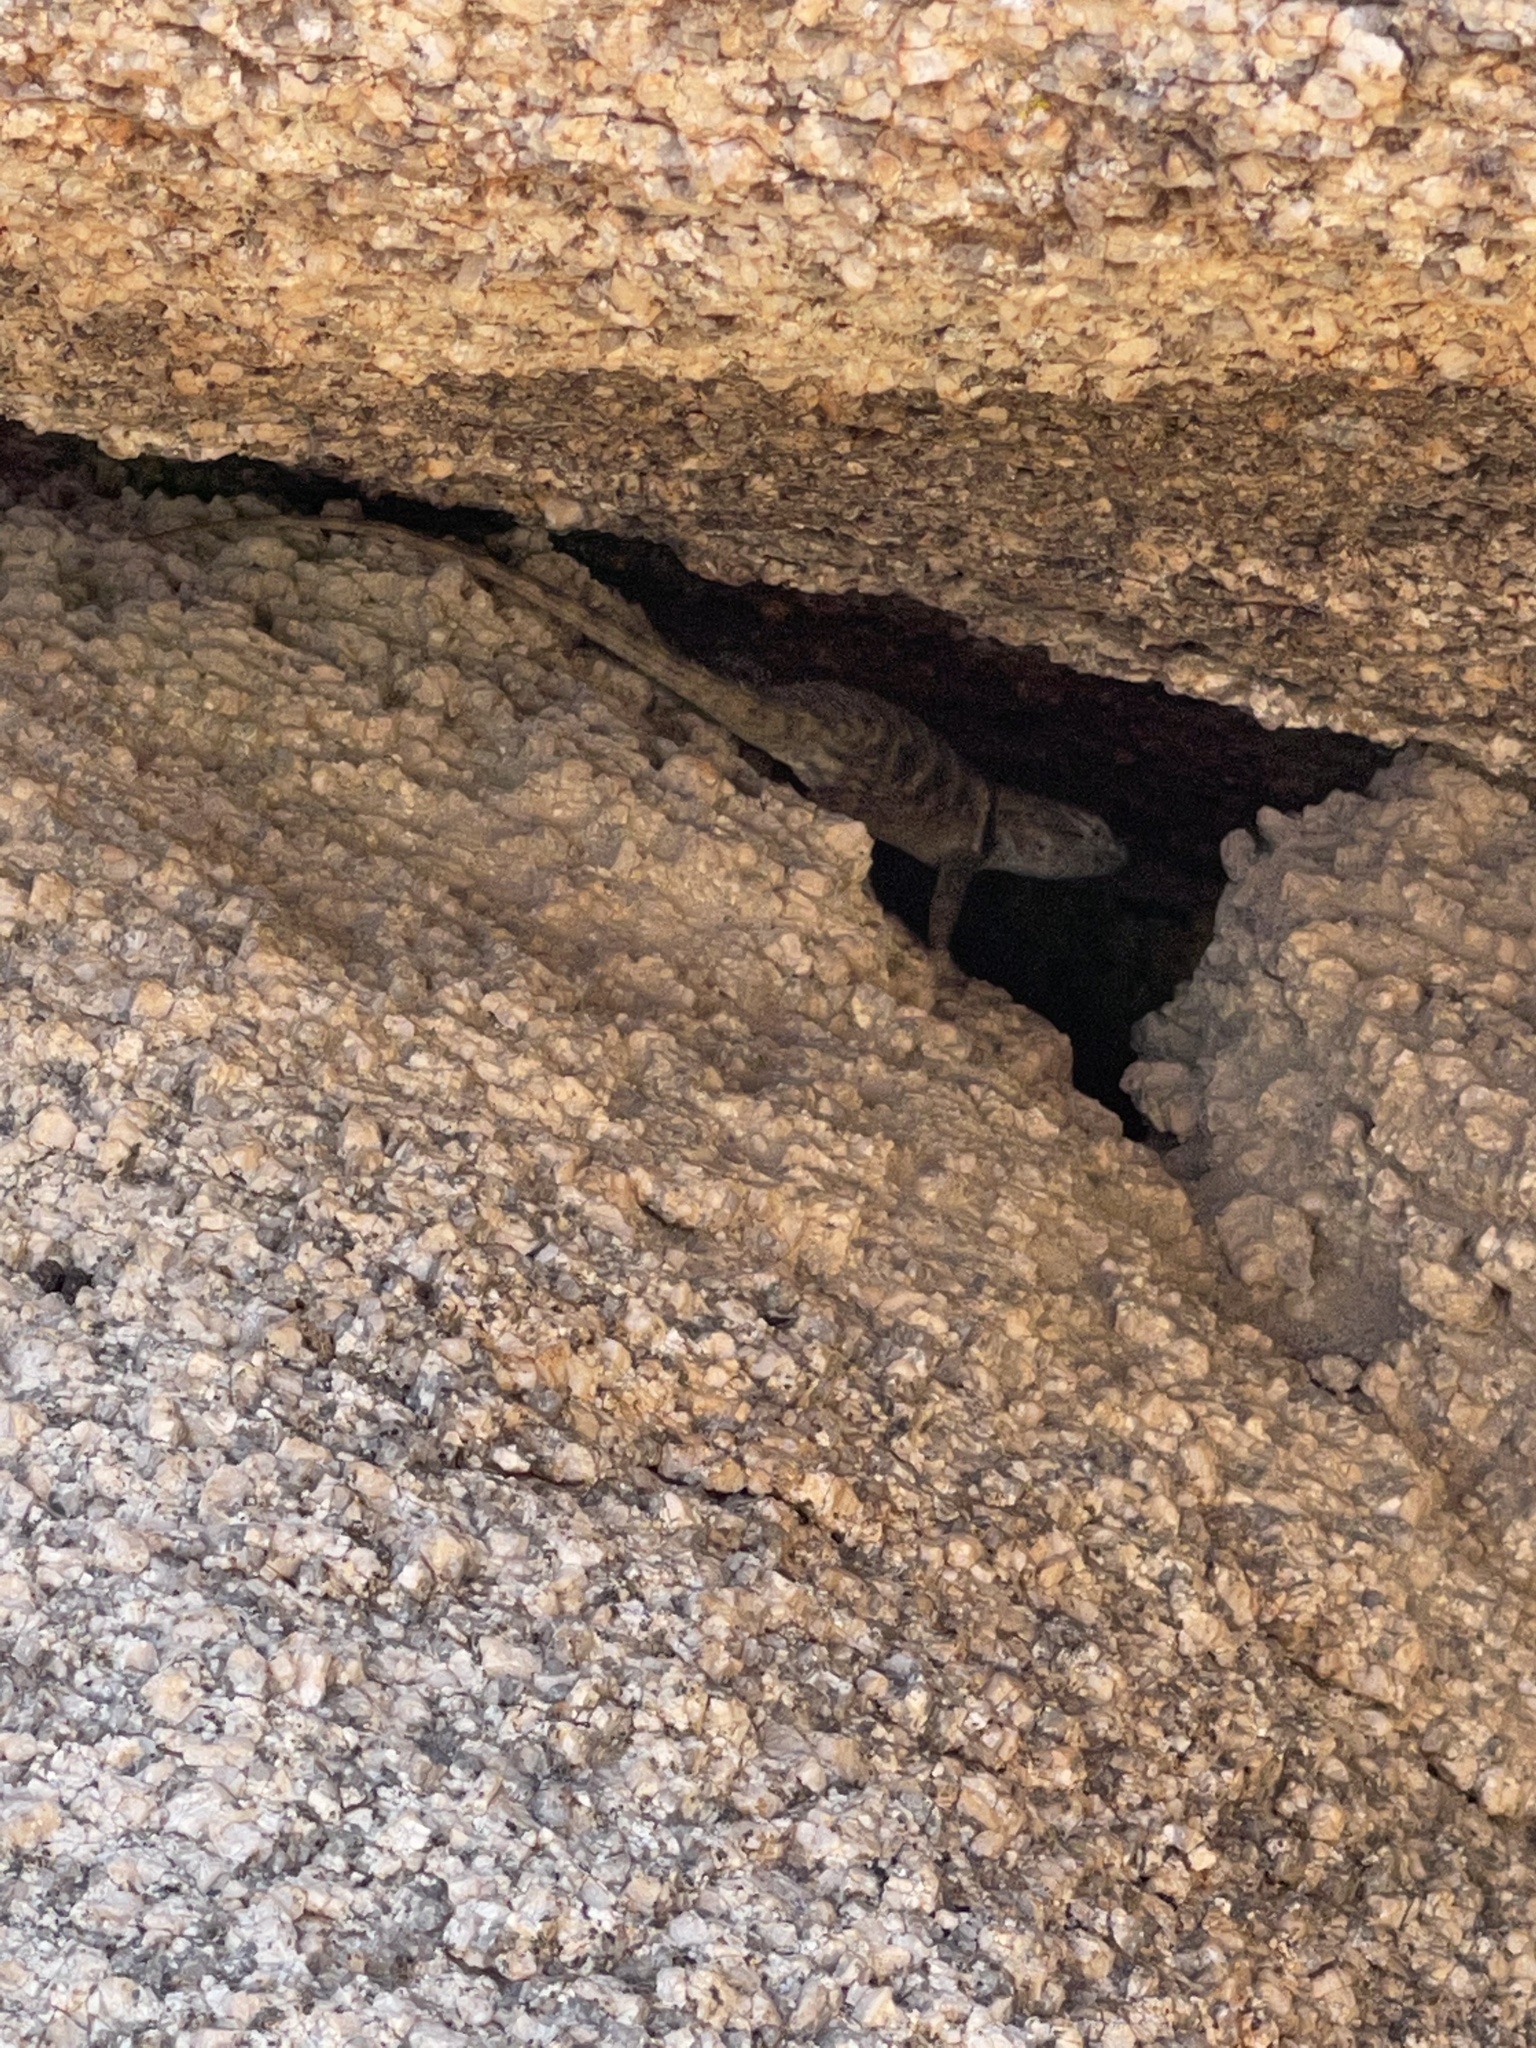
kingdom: Animalia
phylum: Chordata
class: Squamata
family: Phrynosomatidae
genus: Sceloporus
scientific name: Sceloporus magister
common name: Desert spiny lizard
